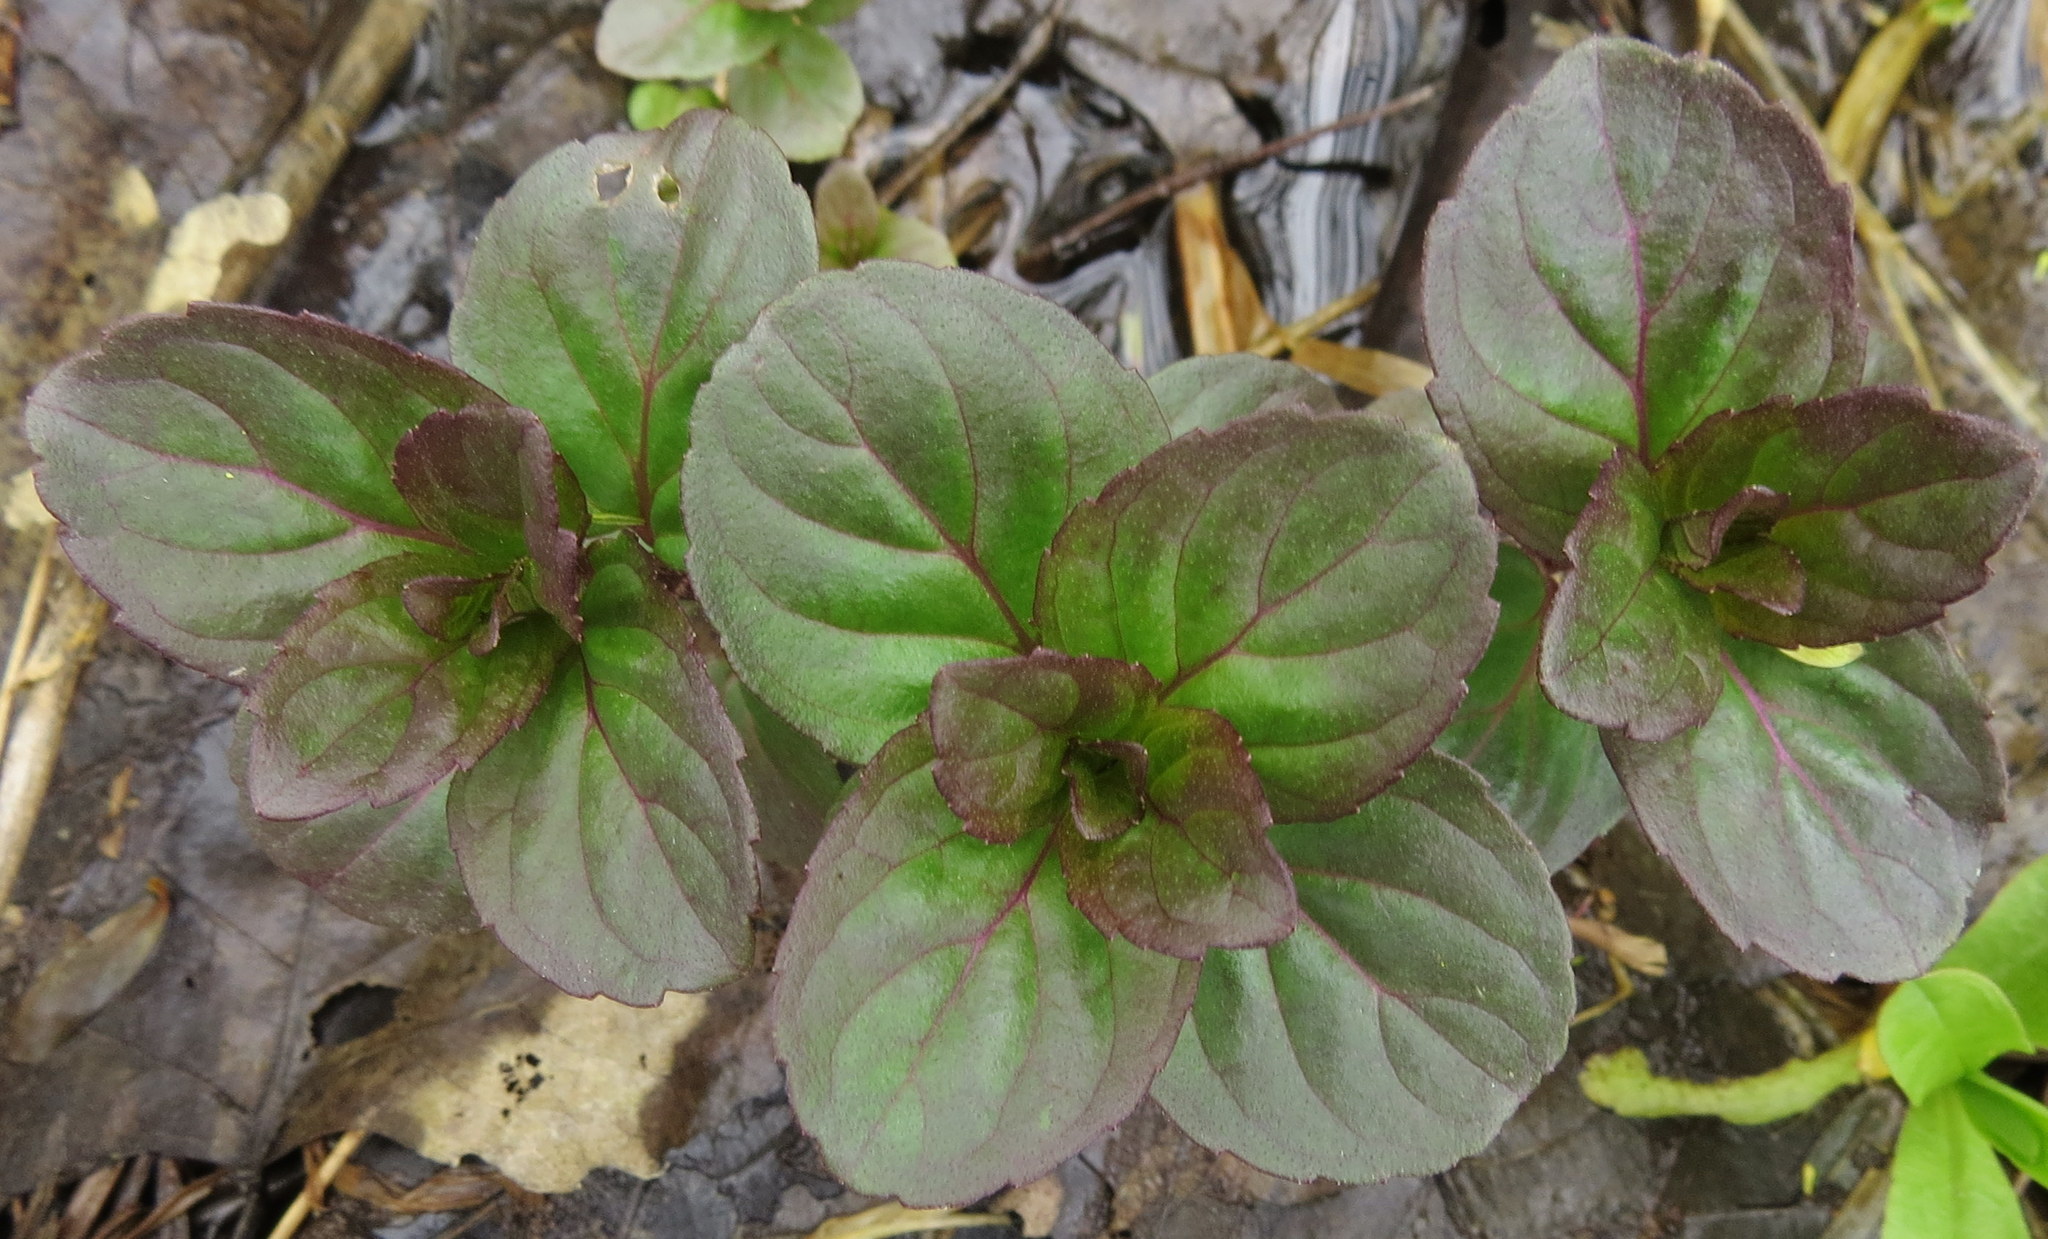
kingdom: Plantae
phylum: Tracheophyta
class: Magnoliopsida
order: Lamiales
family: Lamiaceae
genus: Mentha
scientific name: Mentha aquatica
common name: Water mint
